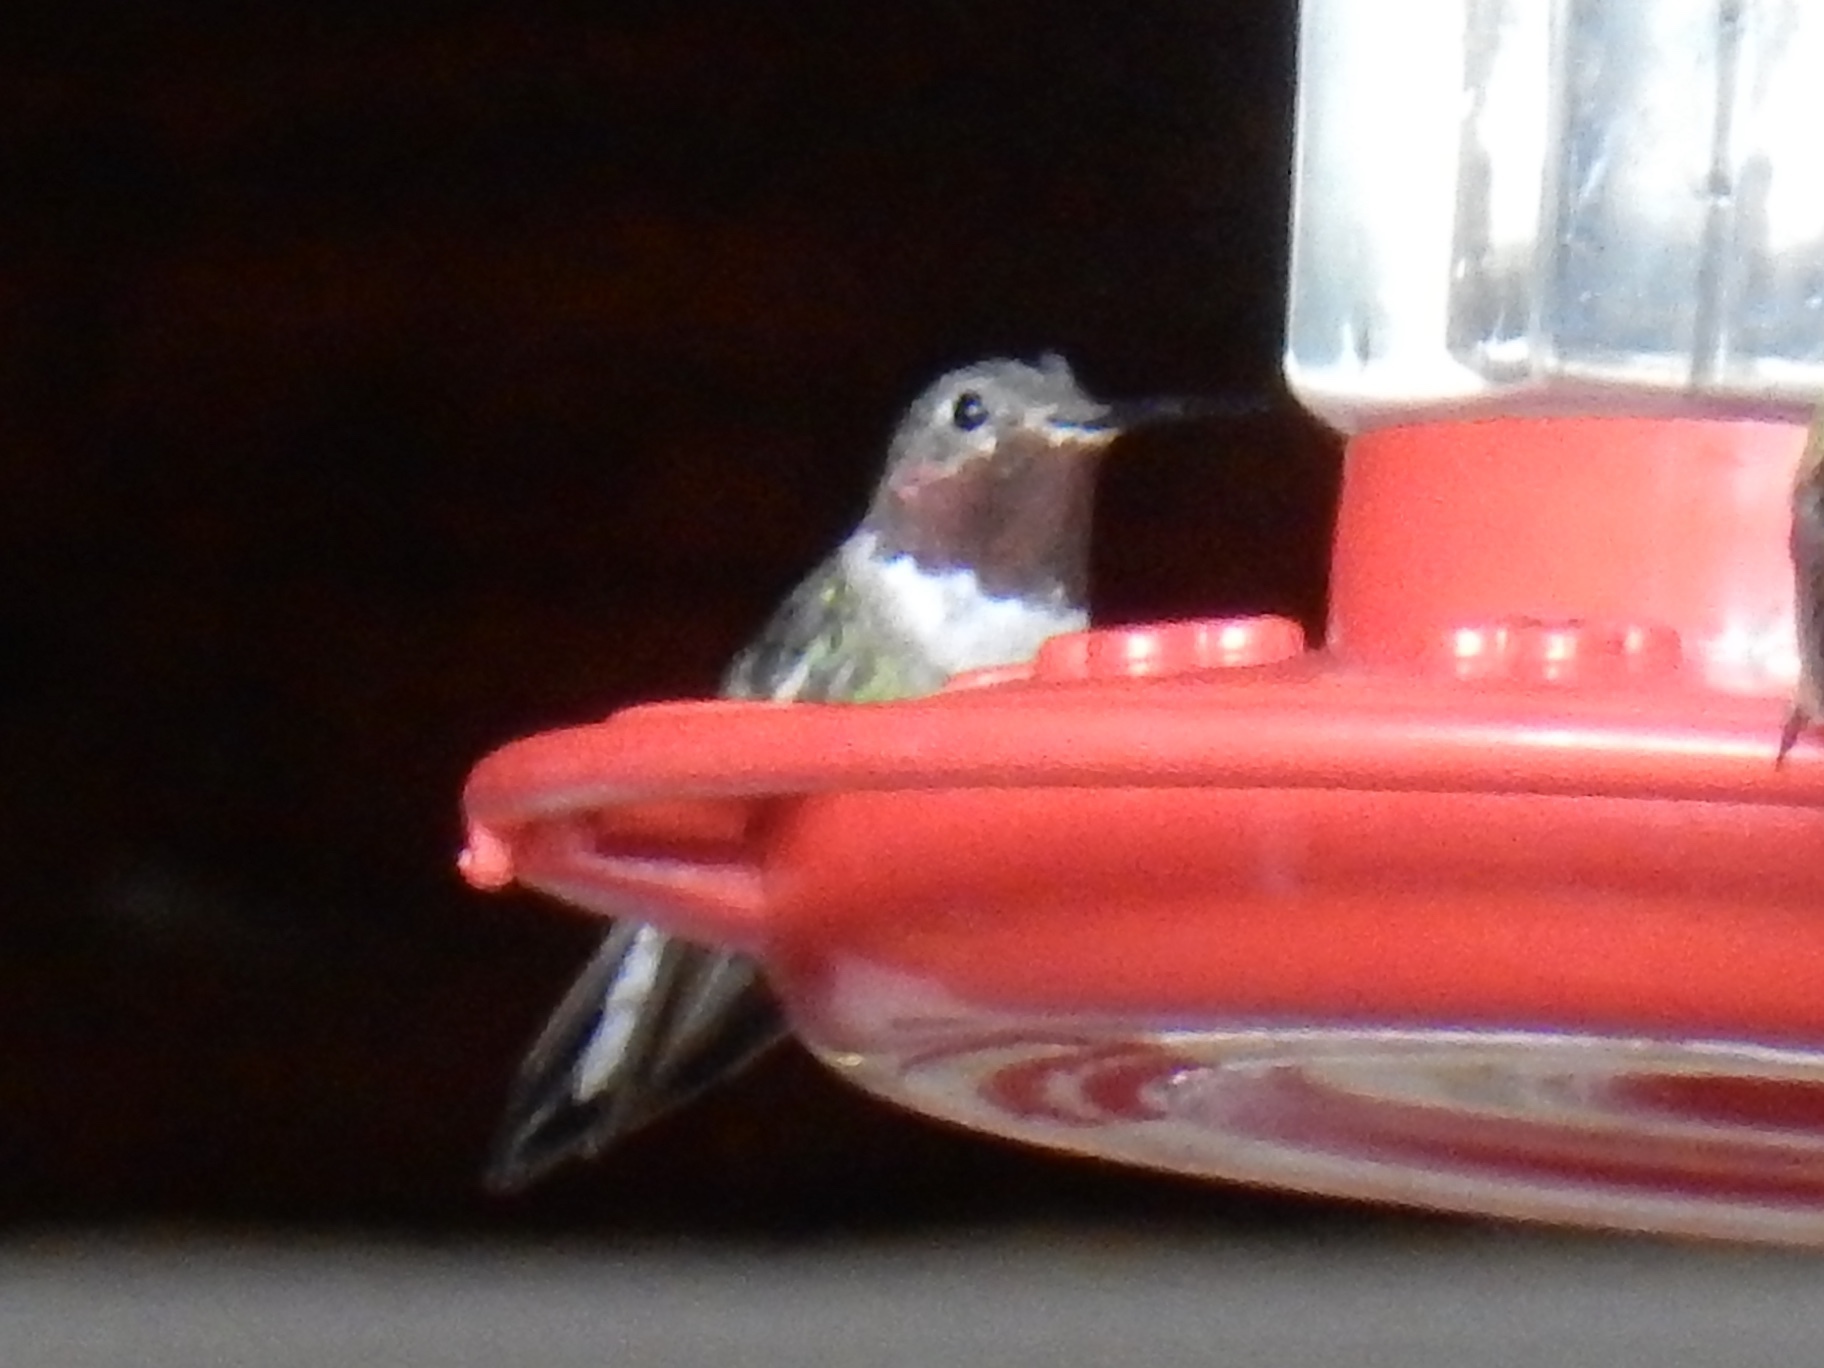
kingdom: Animalia
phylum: Chordata
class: Aves
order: Apodiformes
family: Trochilidae
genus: Selasphorus
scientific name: Selasphorus platycercus
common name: Broad-tailed hummingbird
